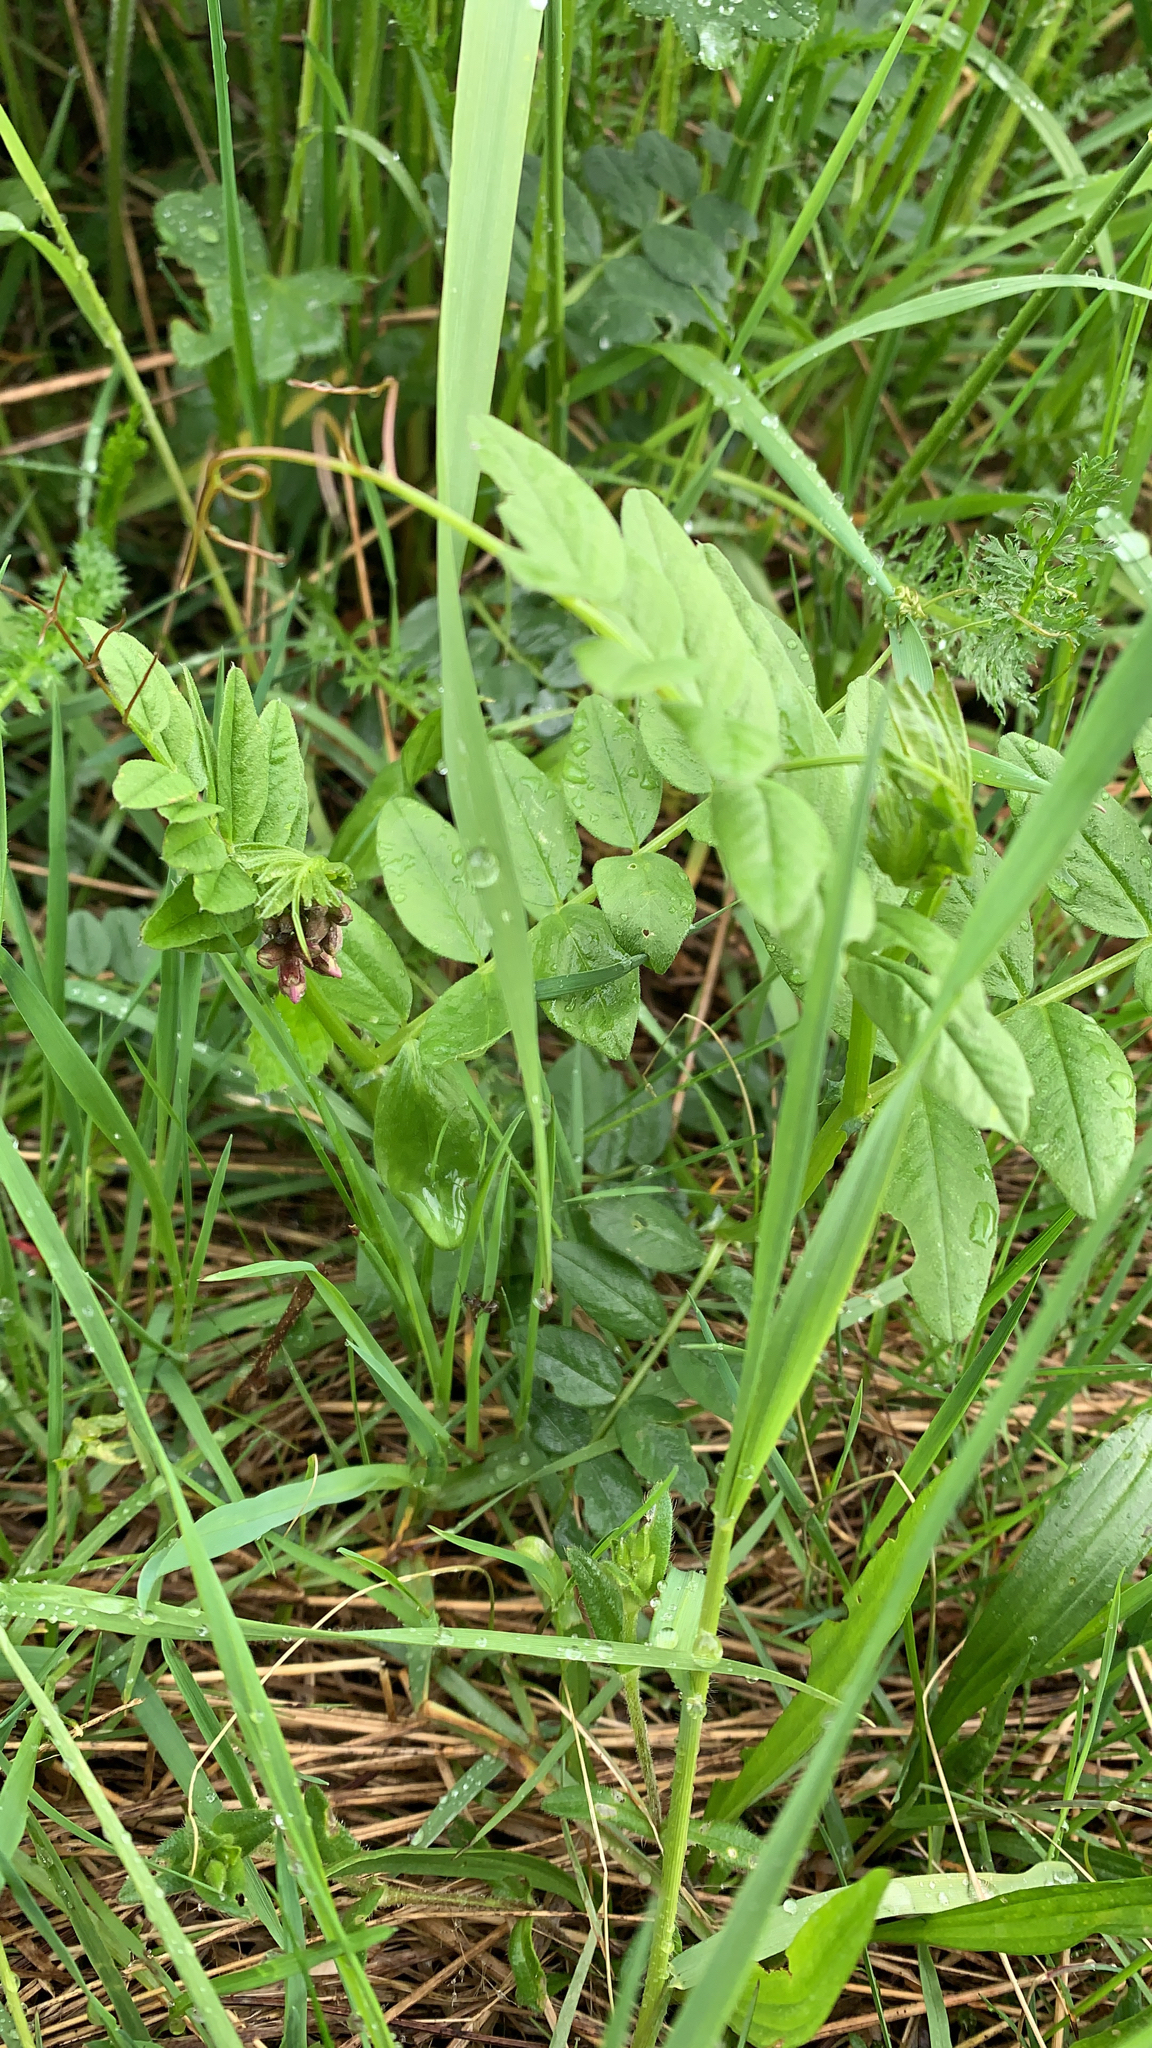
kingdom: Plantae
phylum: Tracheophyta
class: Magnoliopsida
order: Fabales
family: Fabaceae
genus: Vicia
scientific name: Vicia sepium
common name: Bush vetch
